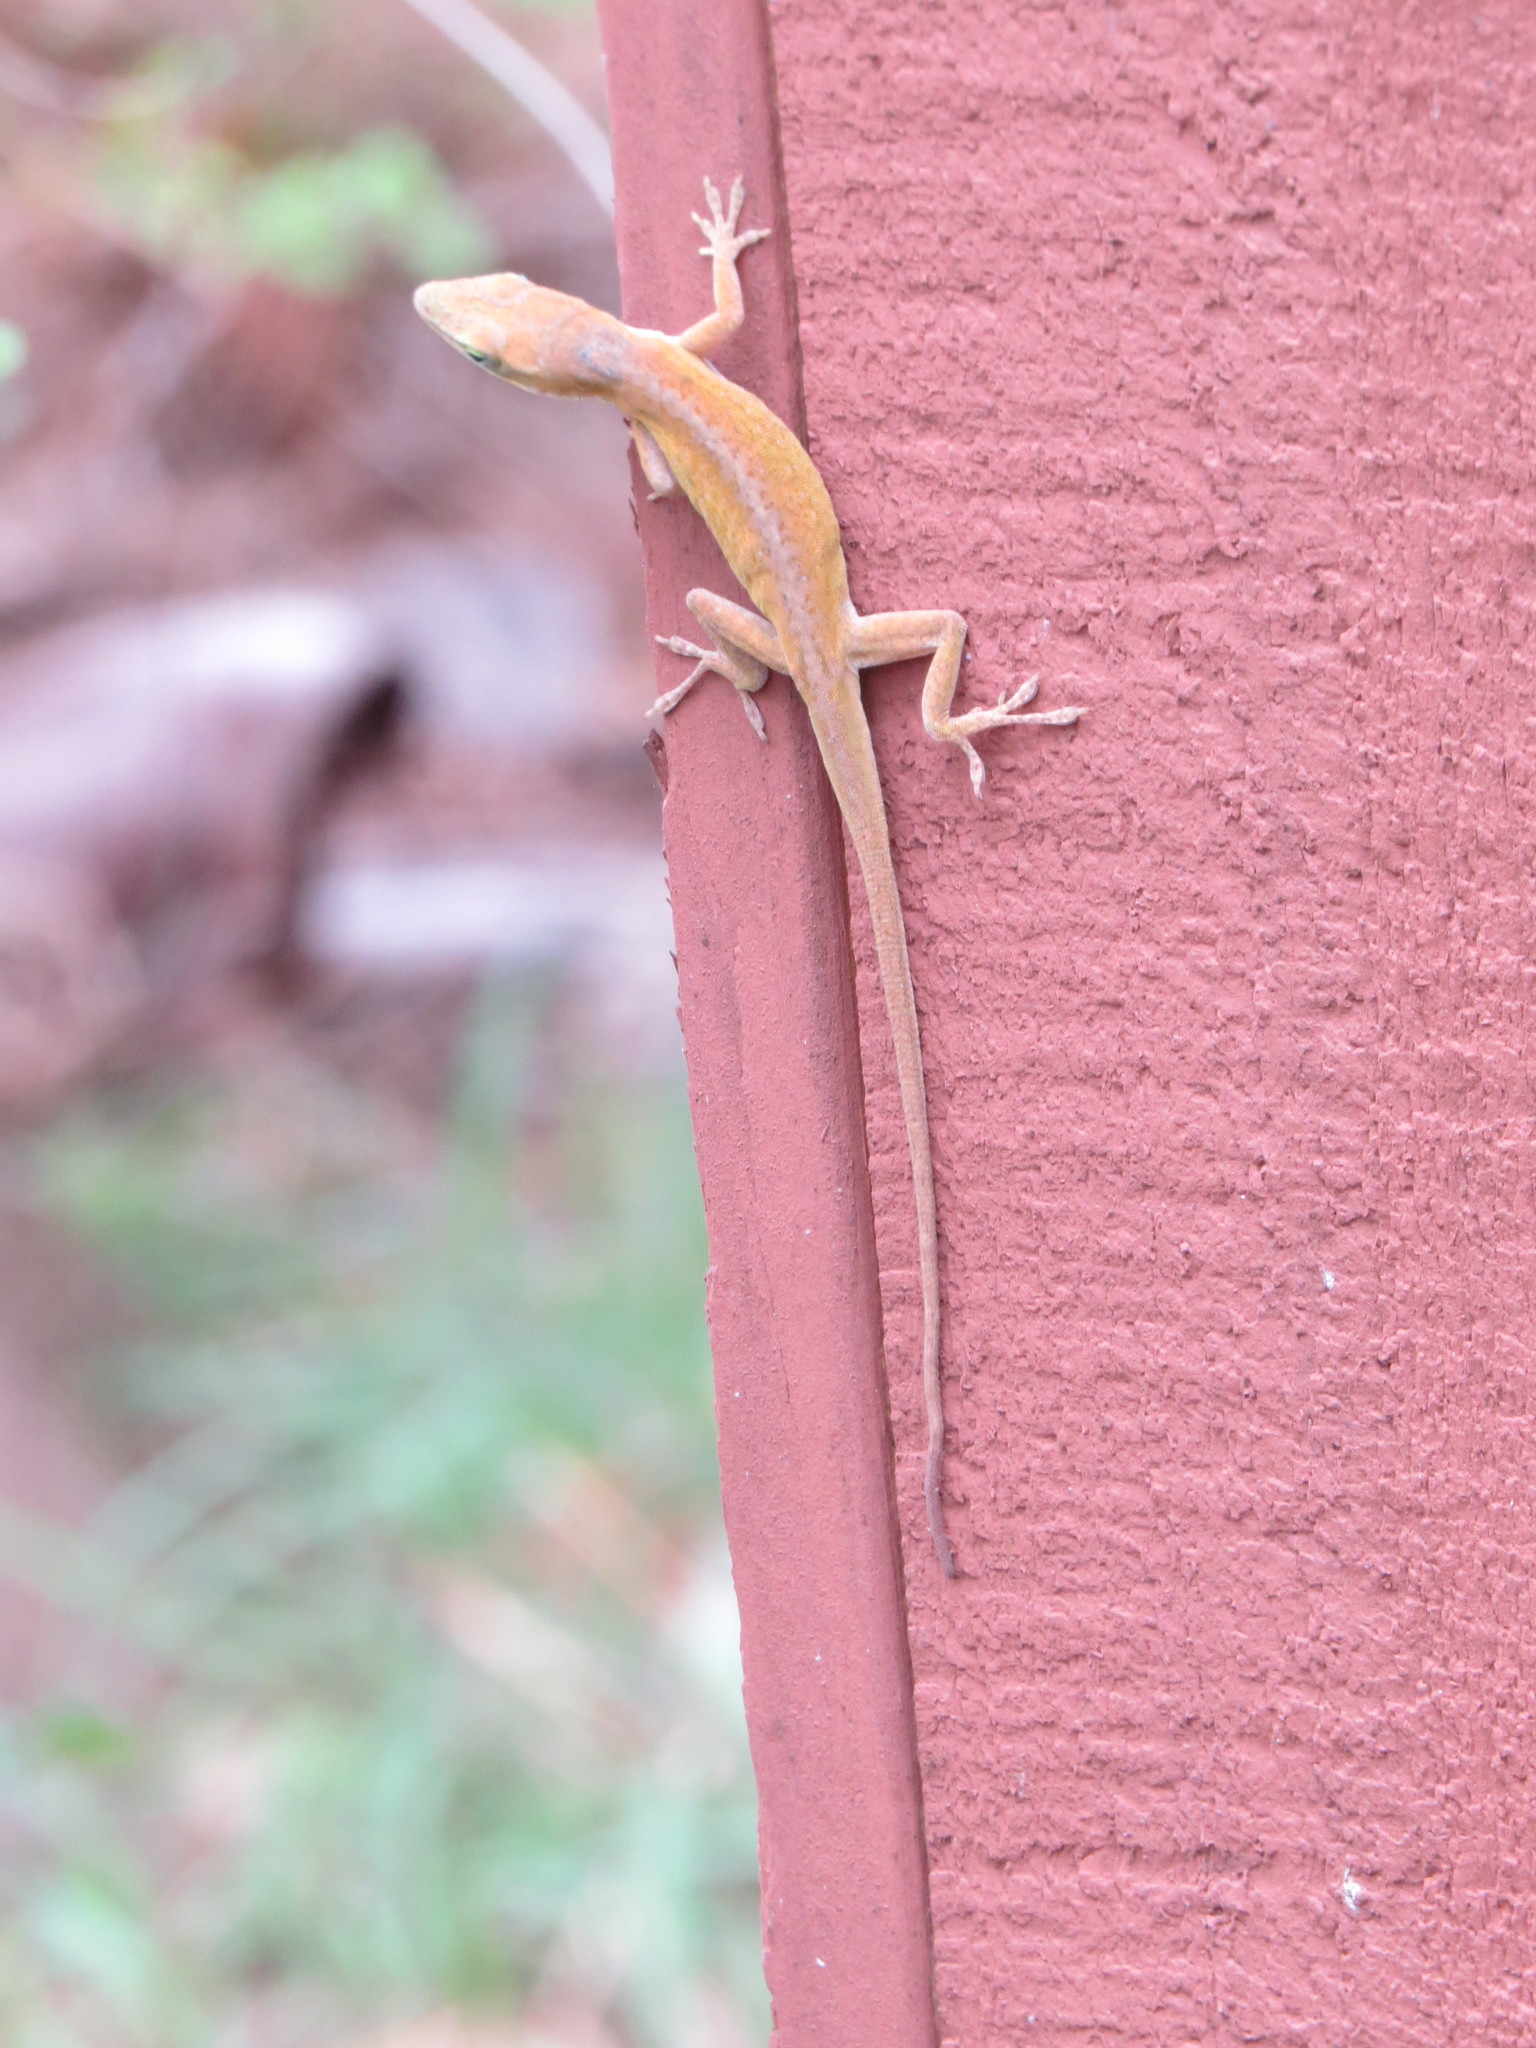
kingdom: Animalia
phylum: Chordata
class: Squamata
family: Dactyloidae
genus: Anolis
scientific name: Anolis carolinensis
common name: Green anole
